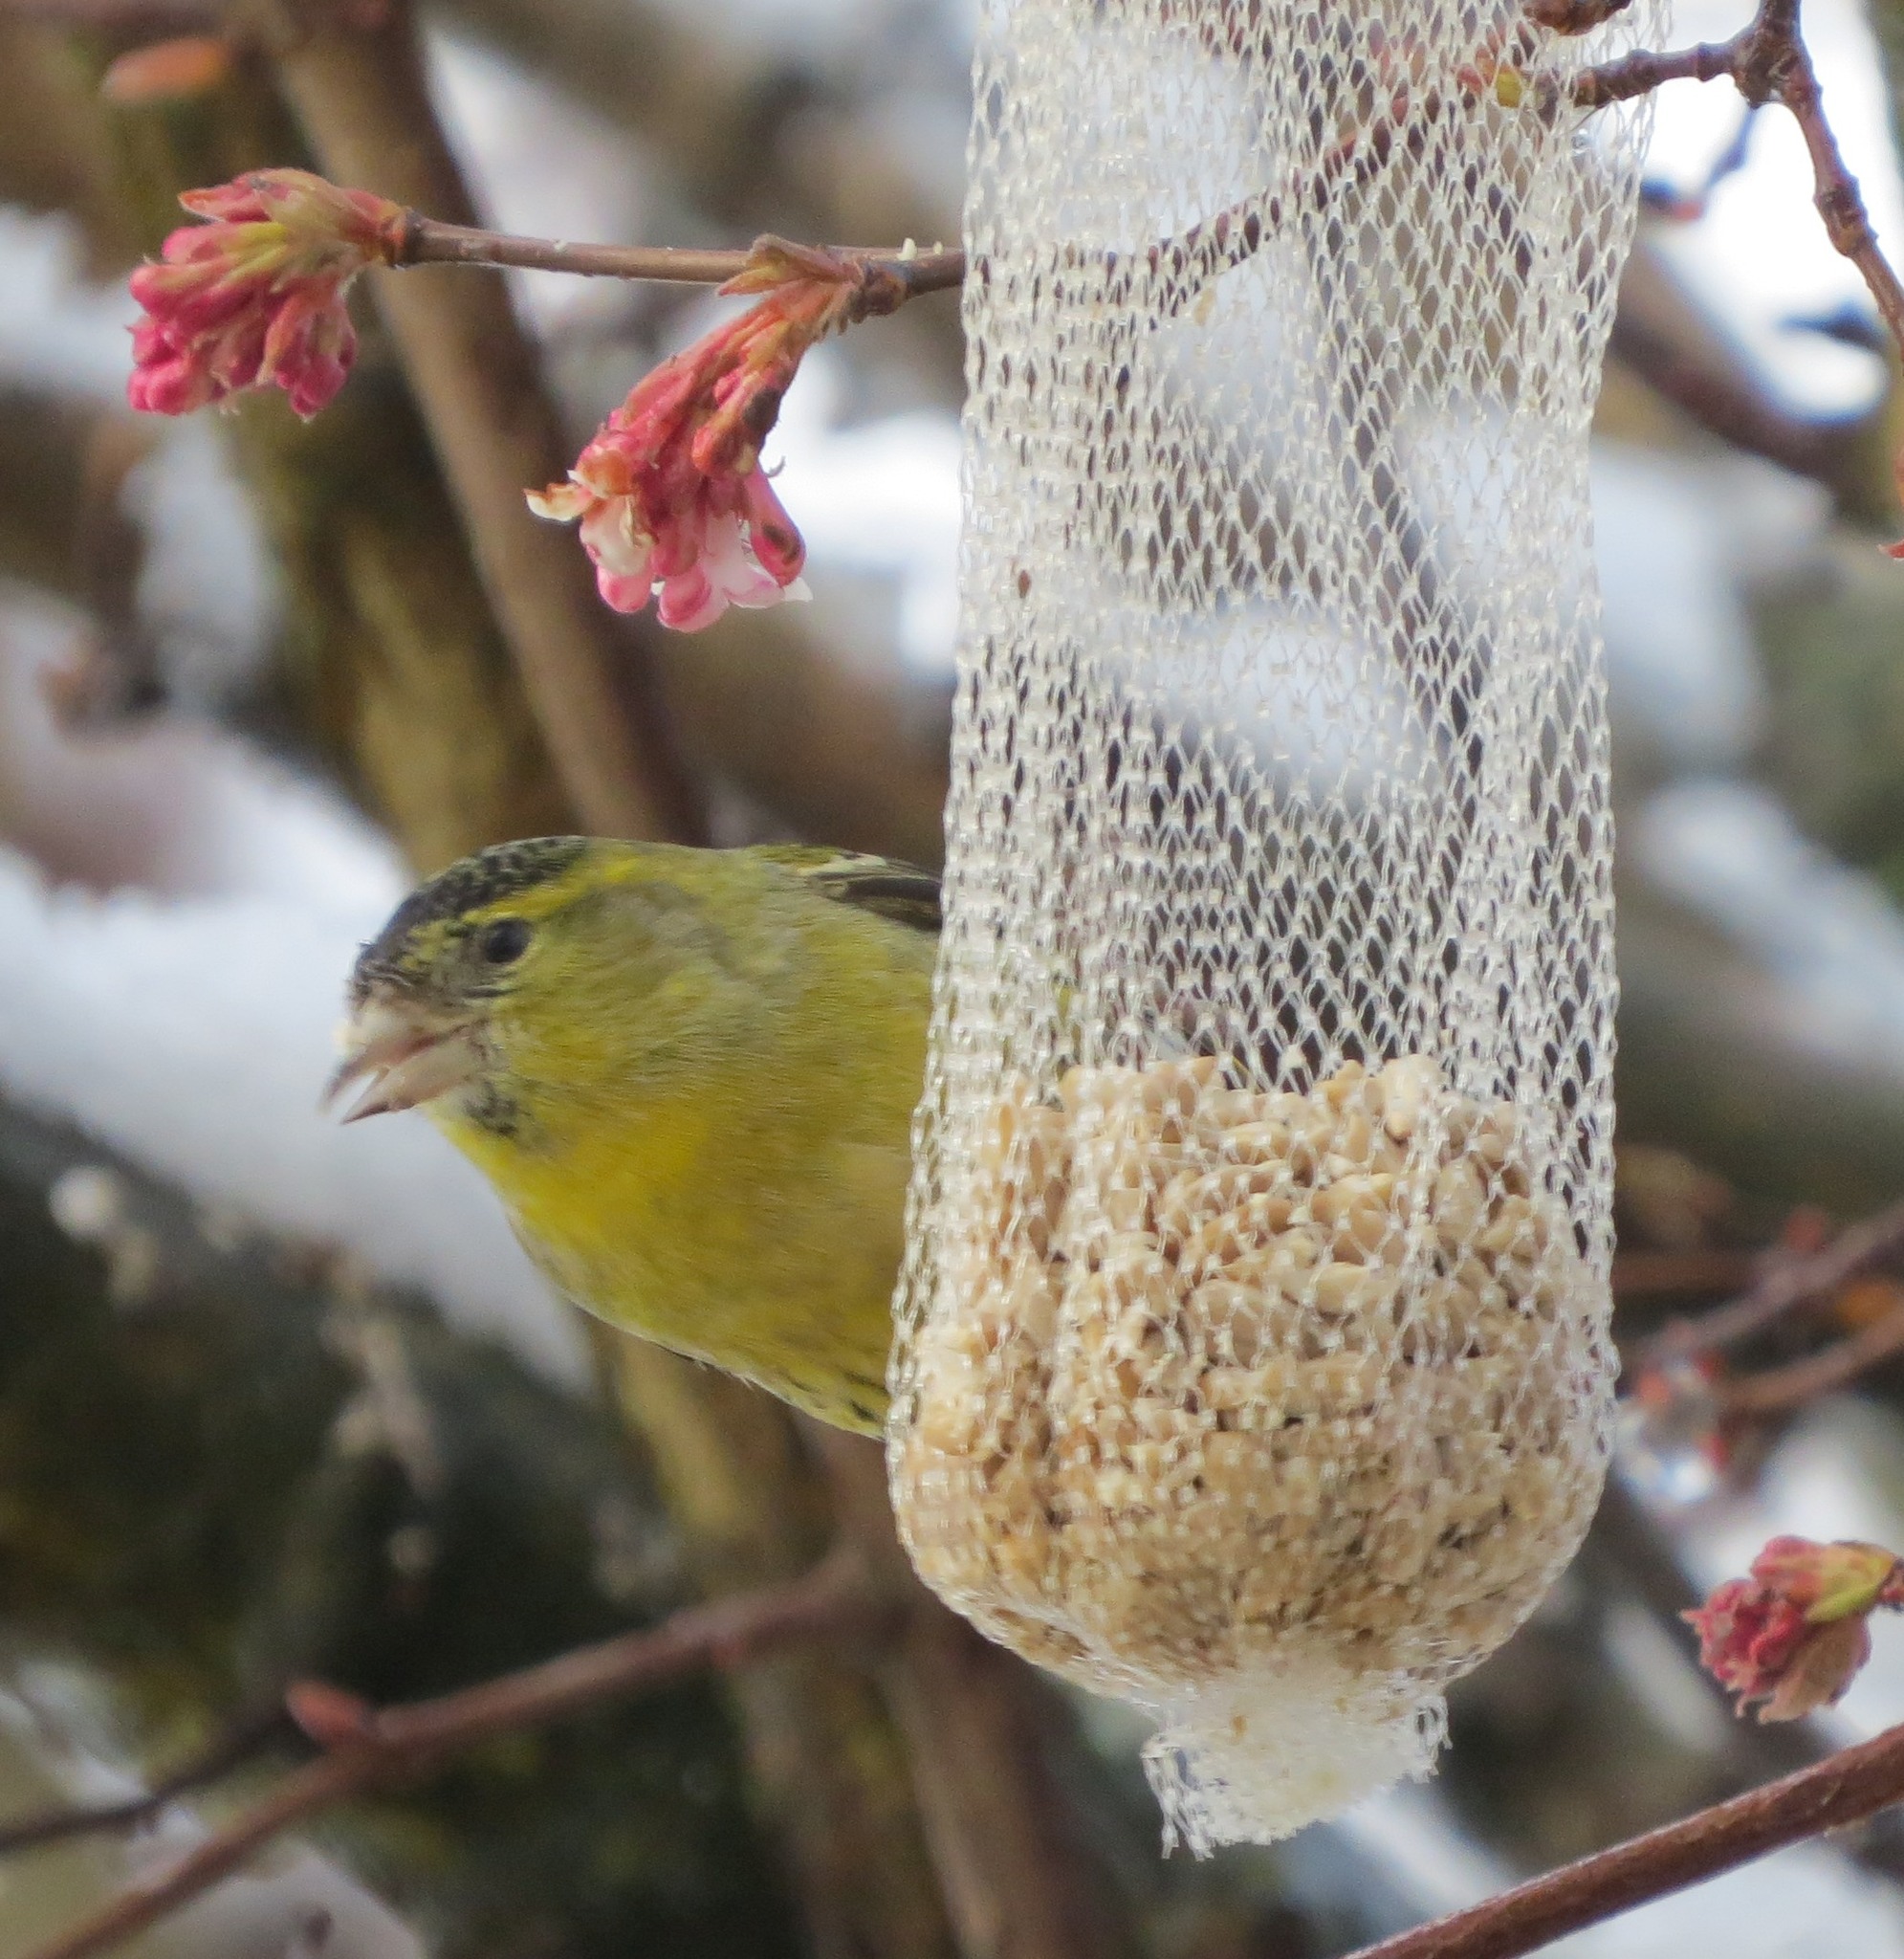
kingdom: Animalia
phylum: Chordata
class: Aves
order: Passeriformes
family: Fringillidae
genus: Spinus
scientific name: Spinus spinus
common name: Eurasian siskin
